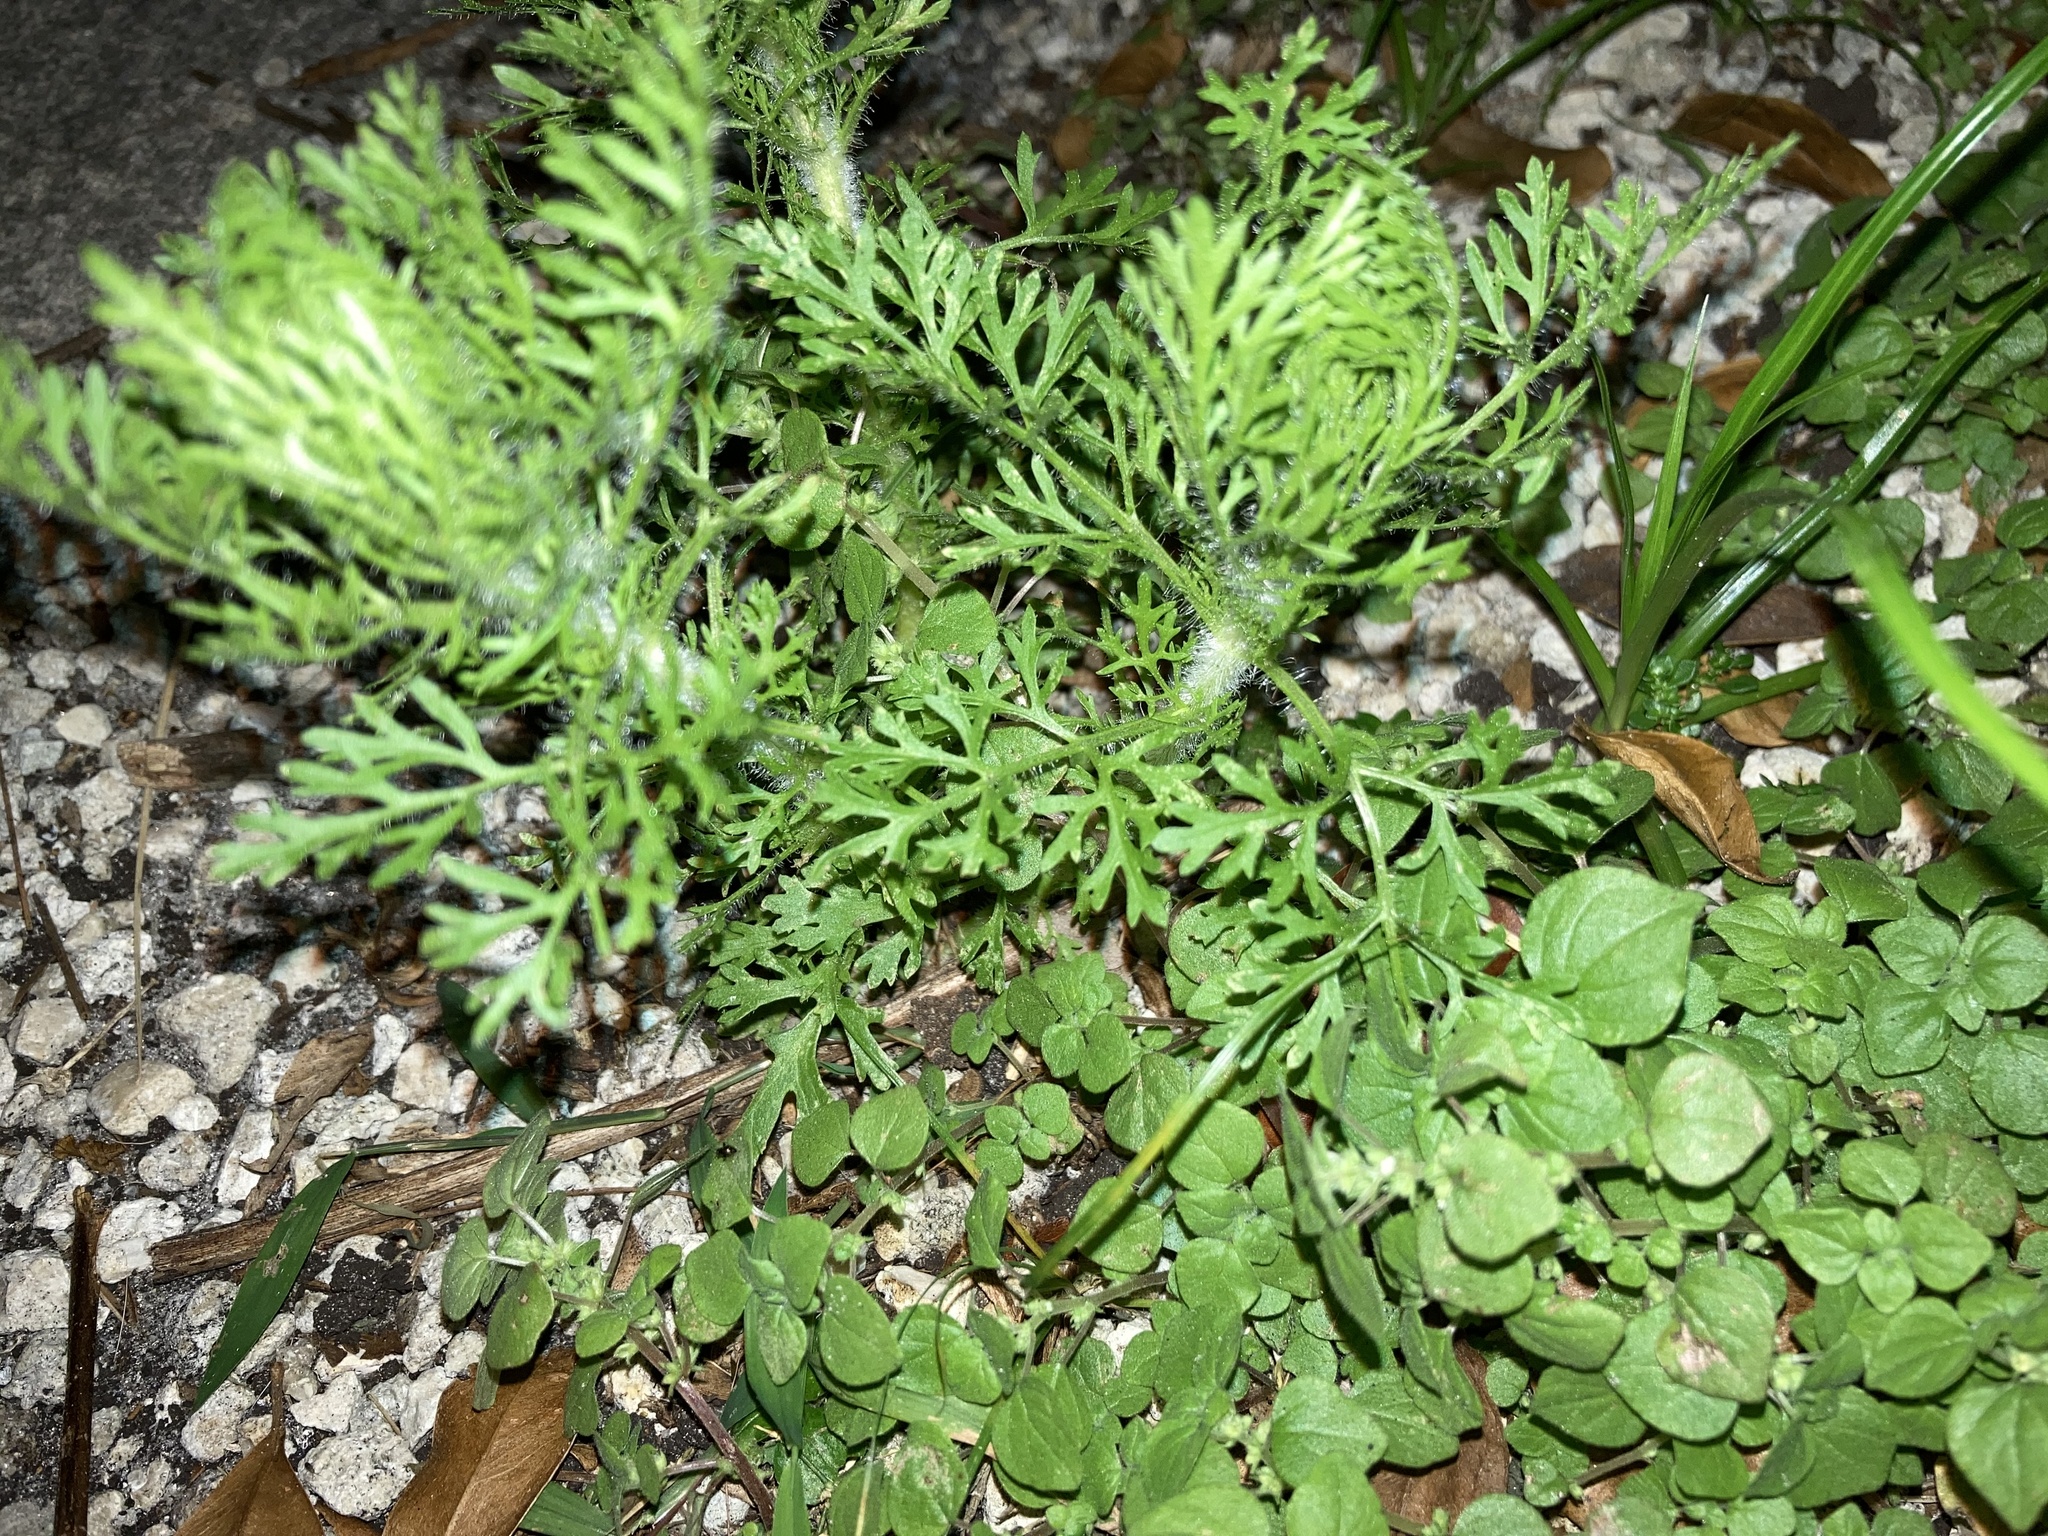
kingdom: Plantae
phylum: Tracheophyta
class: Magnoliopsida
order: Asterales
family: Asteraceae
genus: Ambrosia
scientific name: Ambrosia artemisiifolia
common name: Annual ragweed
